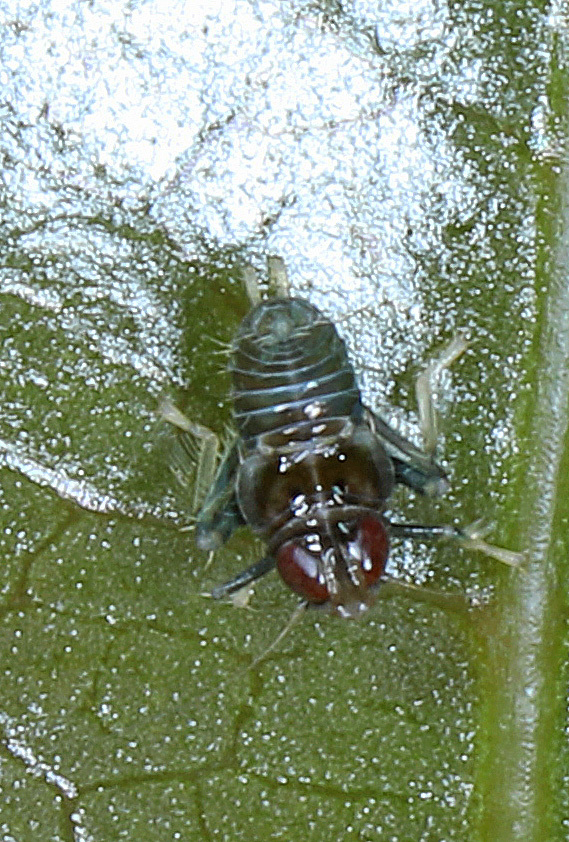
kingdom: Animalia
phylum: Arthropoda
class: Insecta
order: Hemiptera
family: Cicadellidae
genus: Jikradia
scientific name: Jikradia olitoria
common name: Coppery leafhopper
